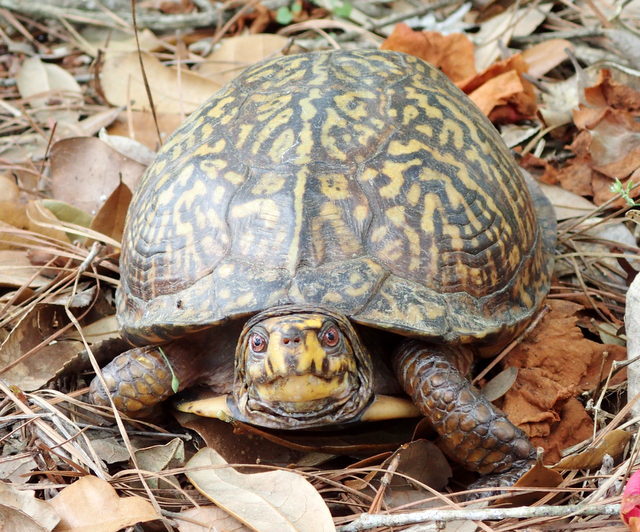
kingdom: Animalia
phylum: Chordata
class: Testudines
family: Emydidae
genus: Terrapene
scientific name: Terrapene carolina
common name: Common box turtle
